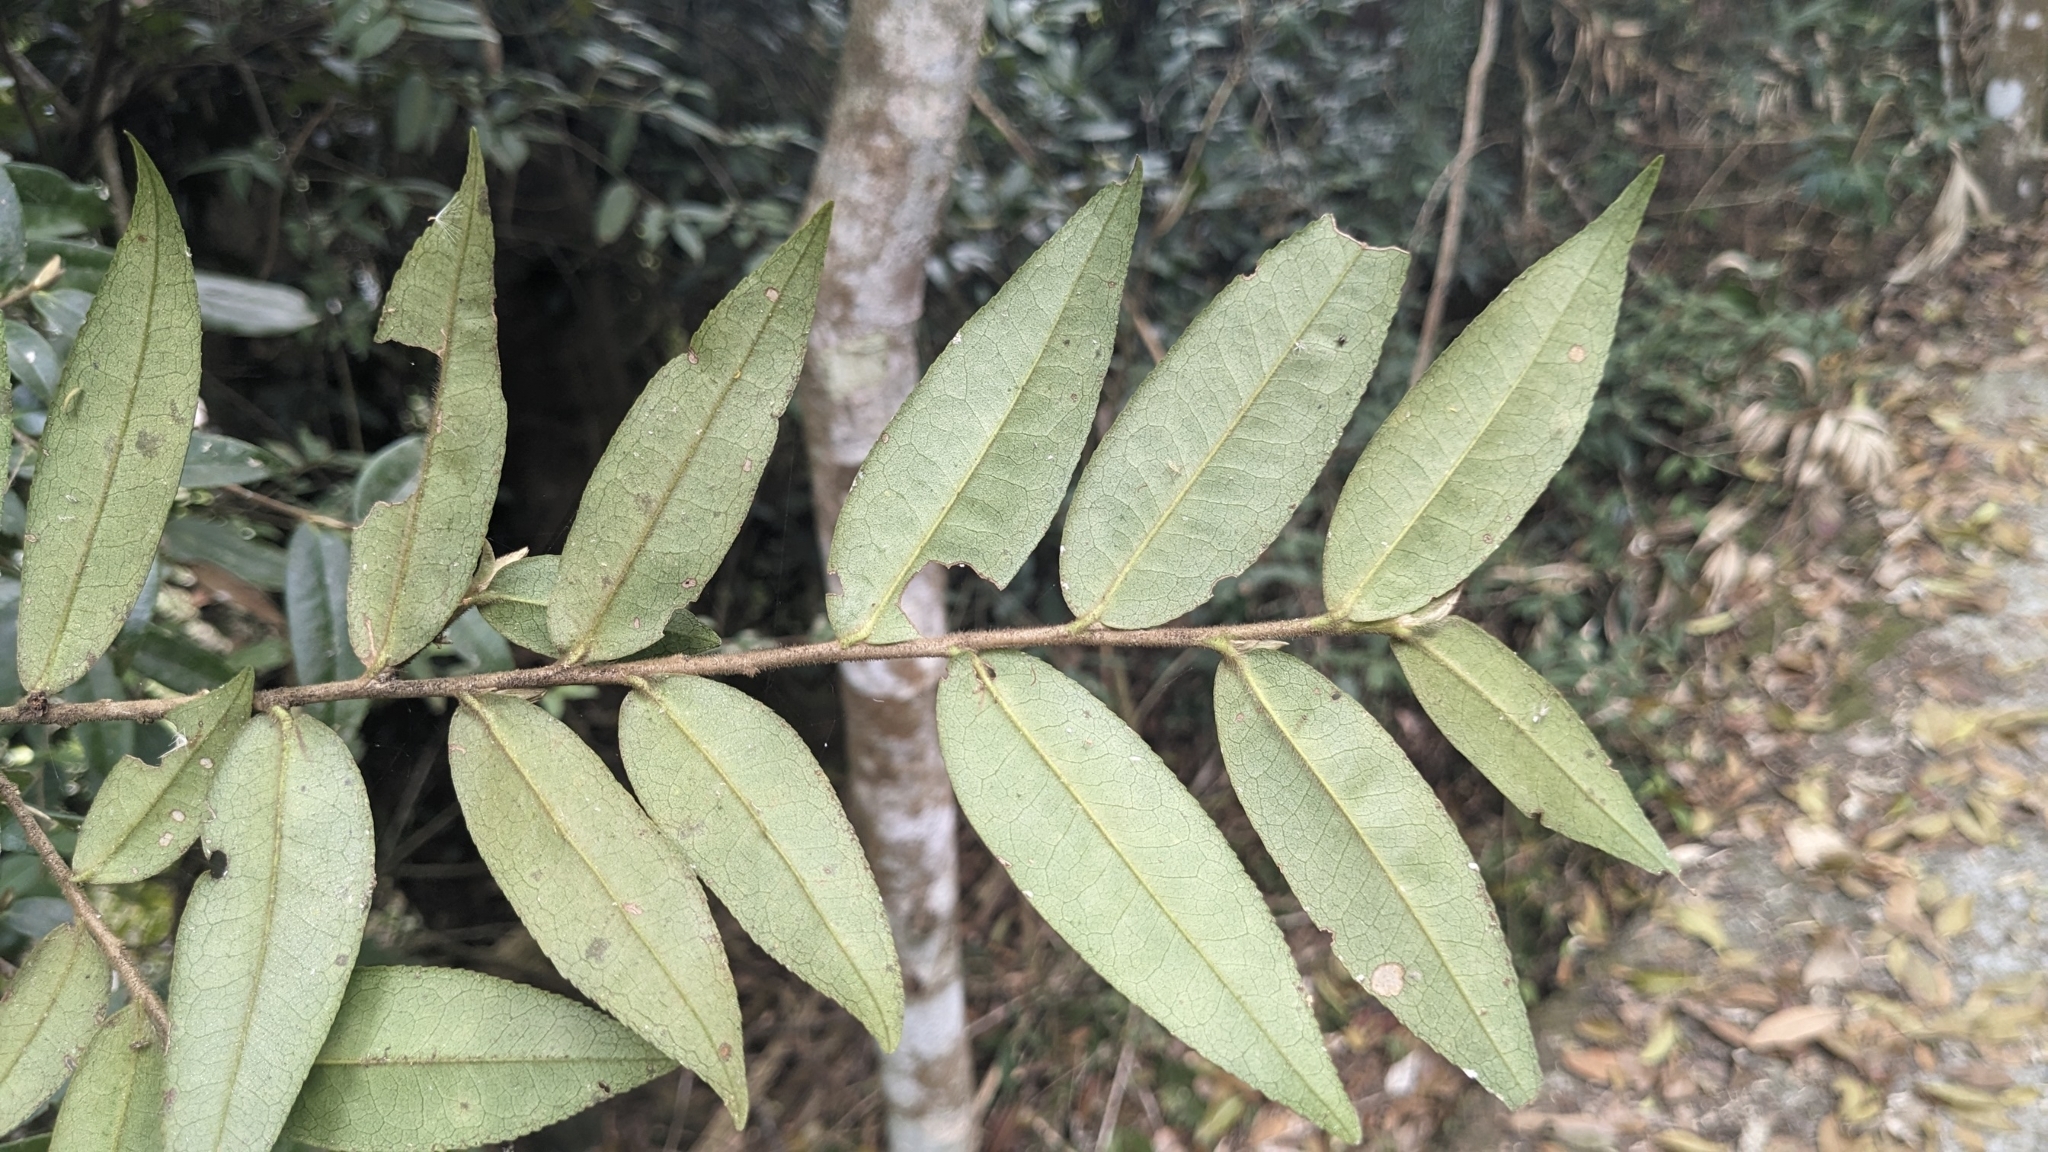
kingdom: Plantae
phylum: Tracheophyta
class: Magnoliopsida
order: Ericales
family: Pentaphylacaceae
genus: Eurya
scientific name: Eurya strigillosa
